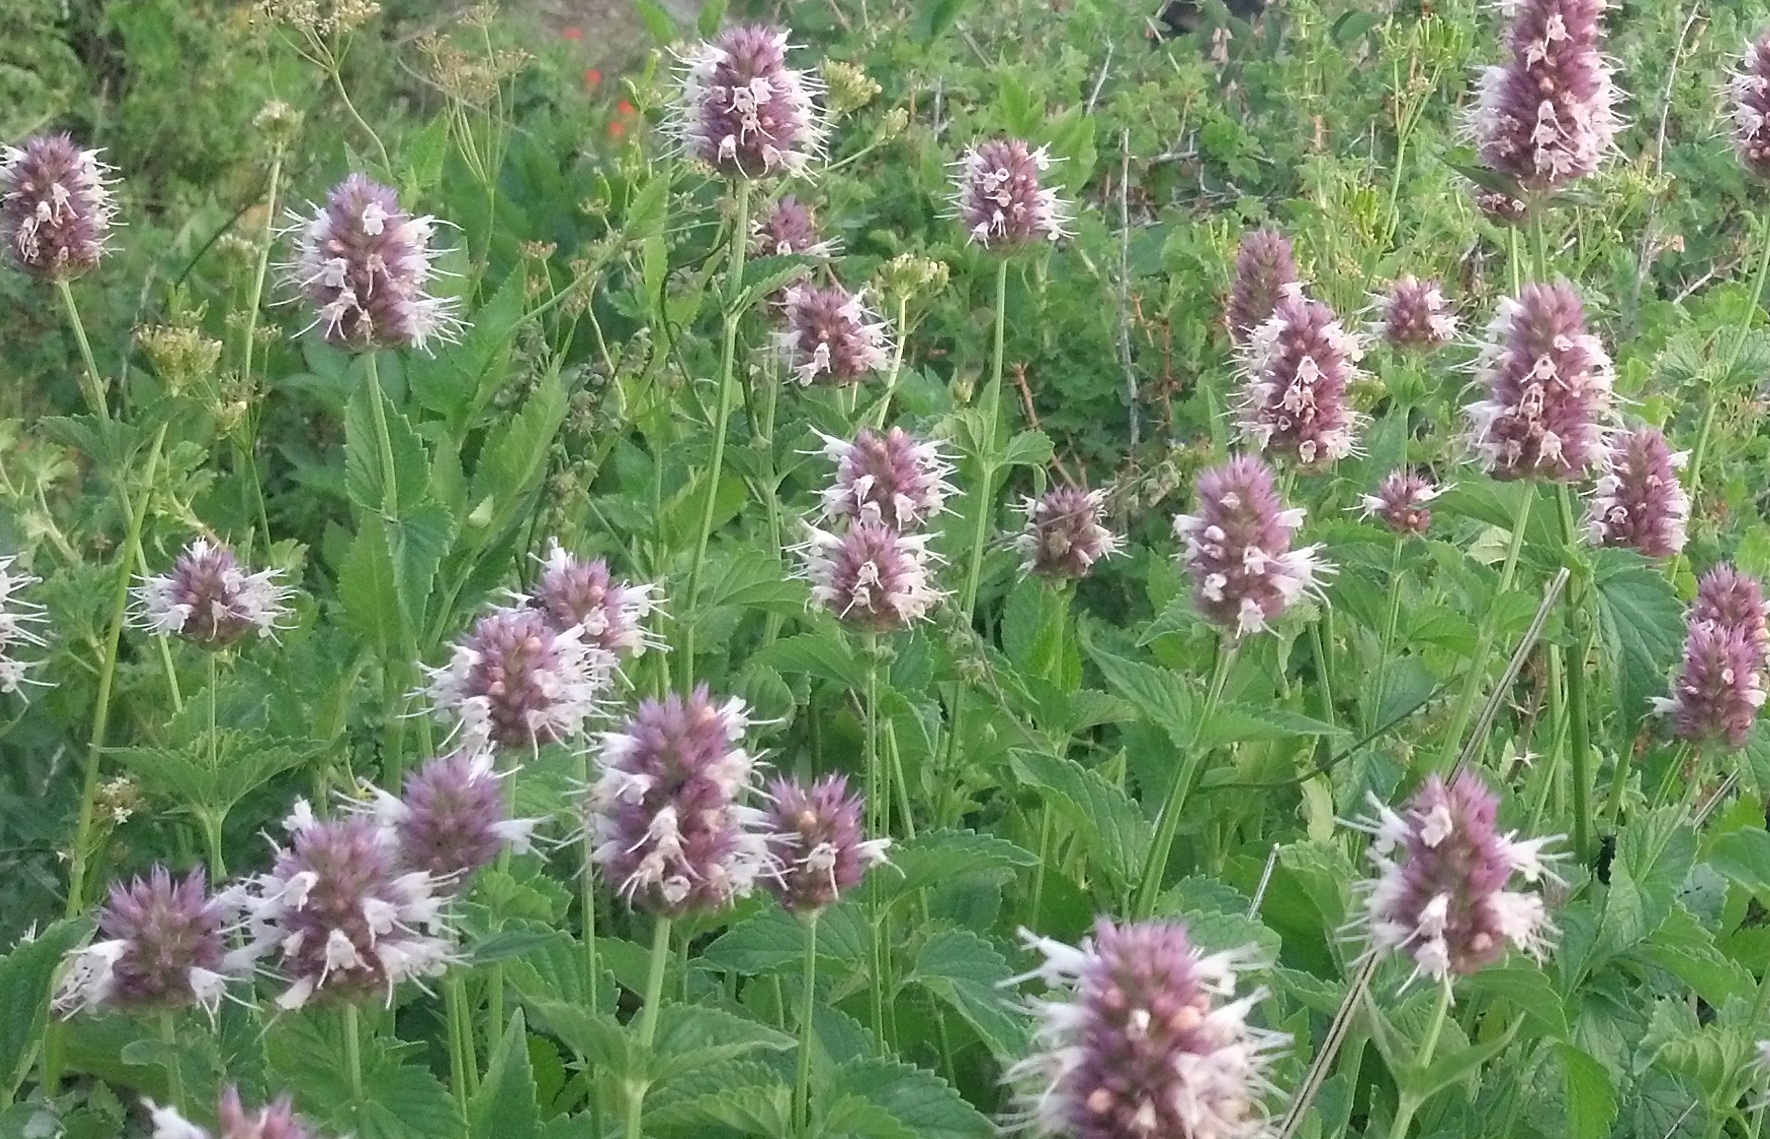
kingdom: Plantae
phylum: Tracheophyta
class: Magnoliopsida
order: Lamiales
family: Lamiaceae
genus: Agastache
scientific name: Agastache urticifolia
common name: Horsemint giant hyssop
